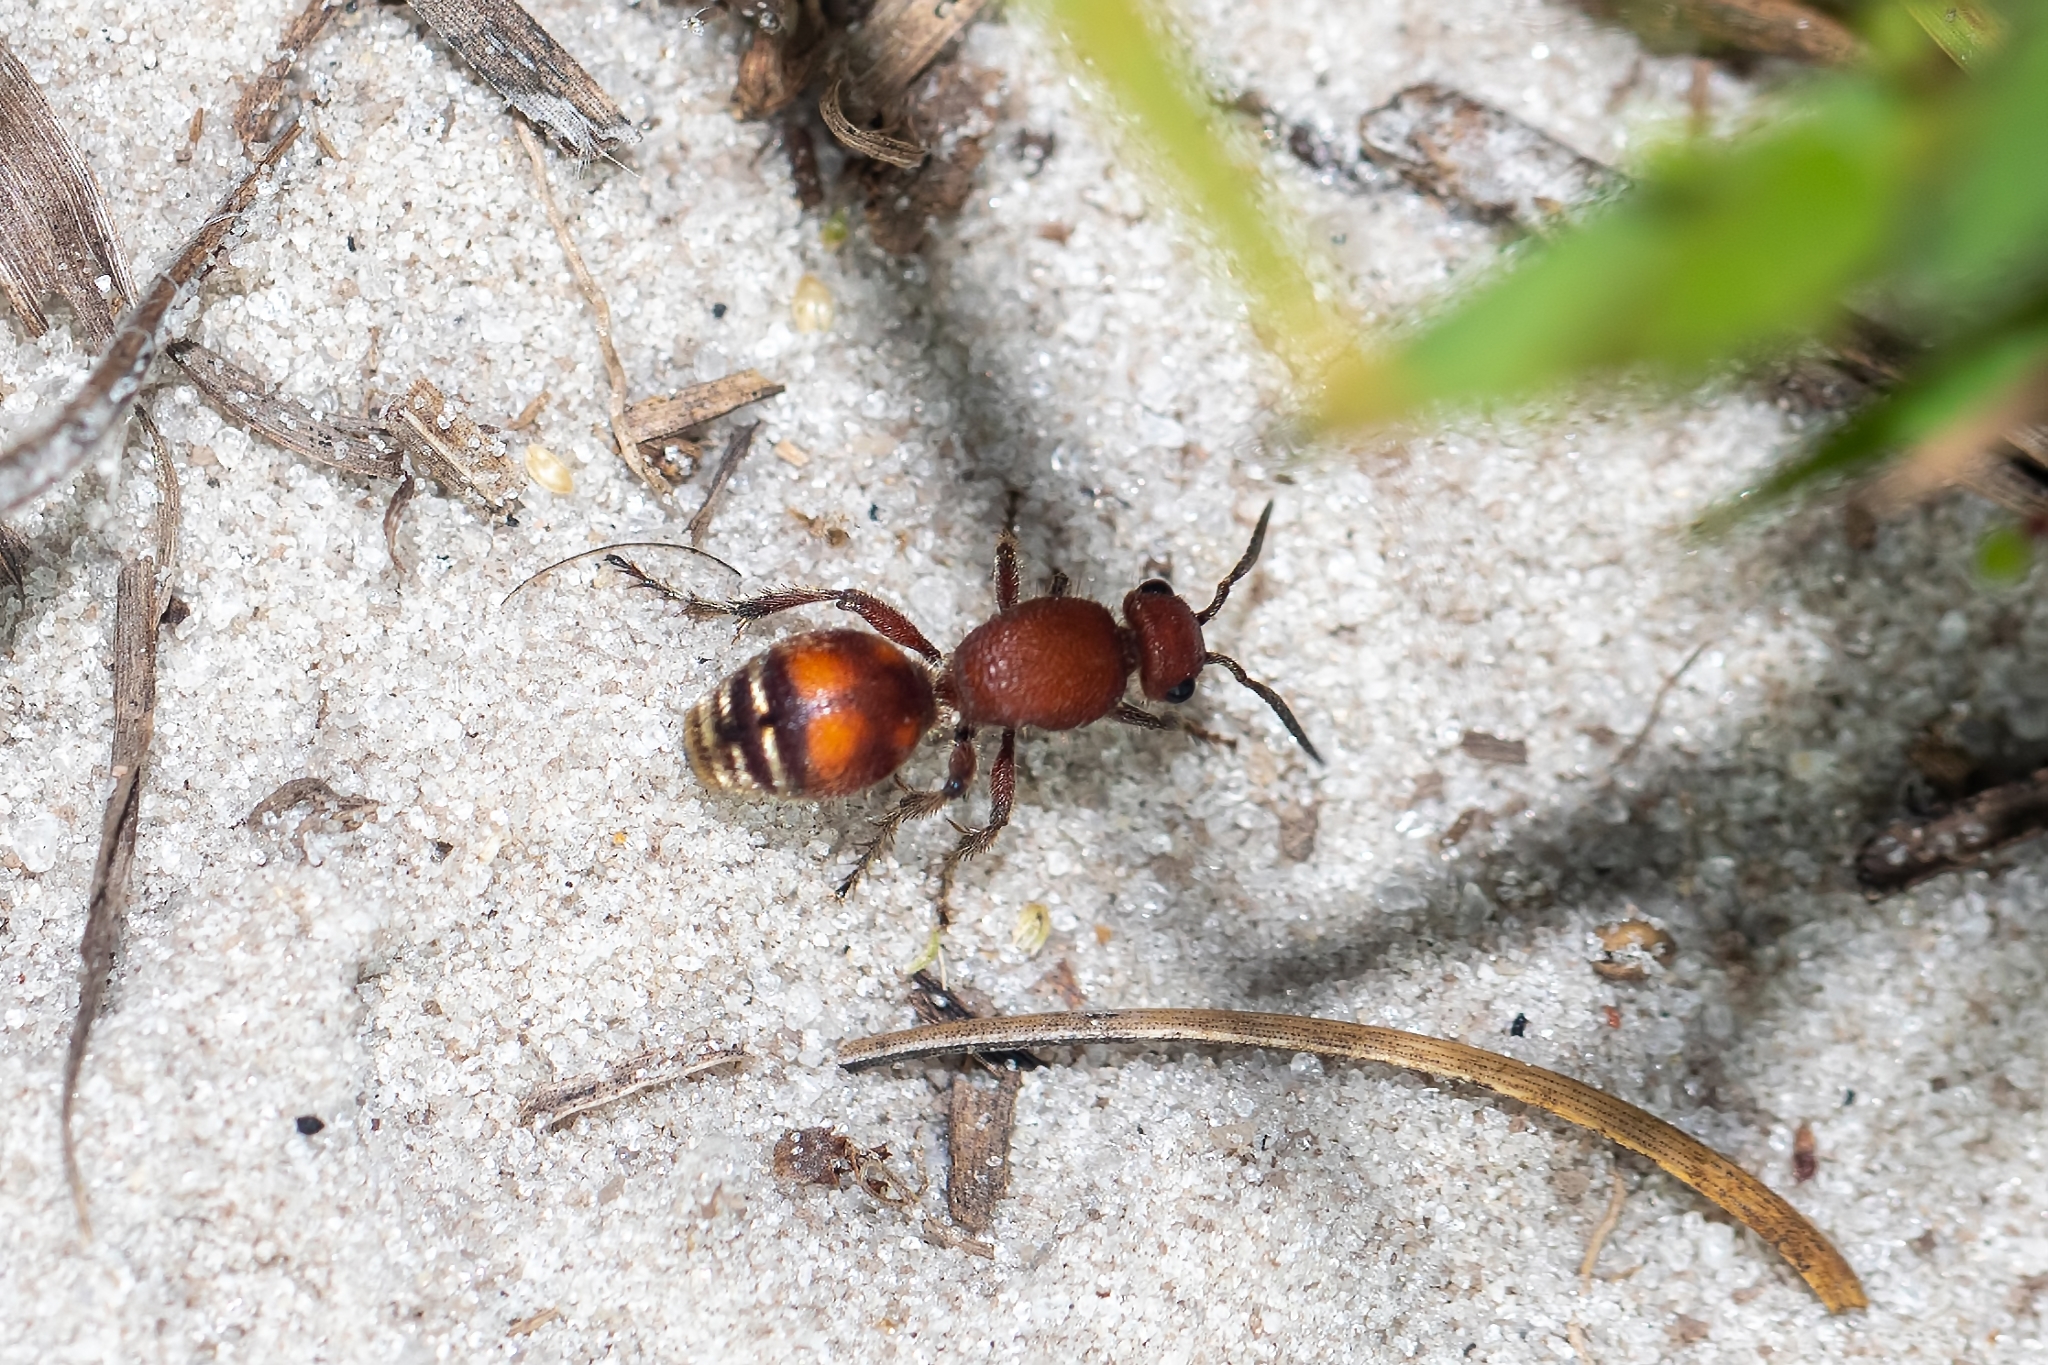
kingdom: Animalia
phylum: Arthropoda
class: Insecta
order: Hymenoptera
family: Mutillidae
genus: Dasymutilla
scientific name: Dasymutilla
